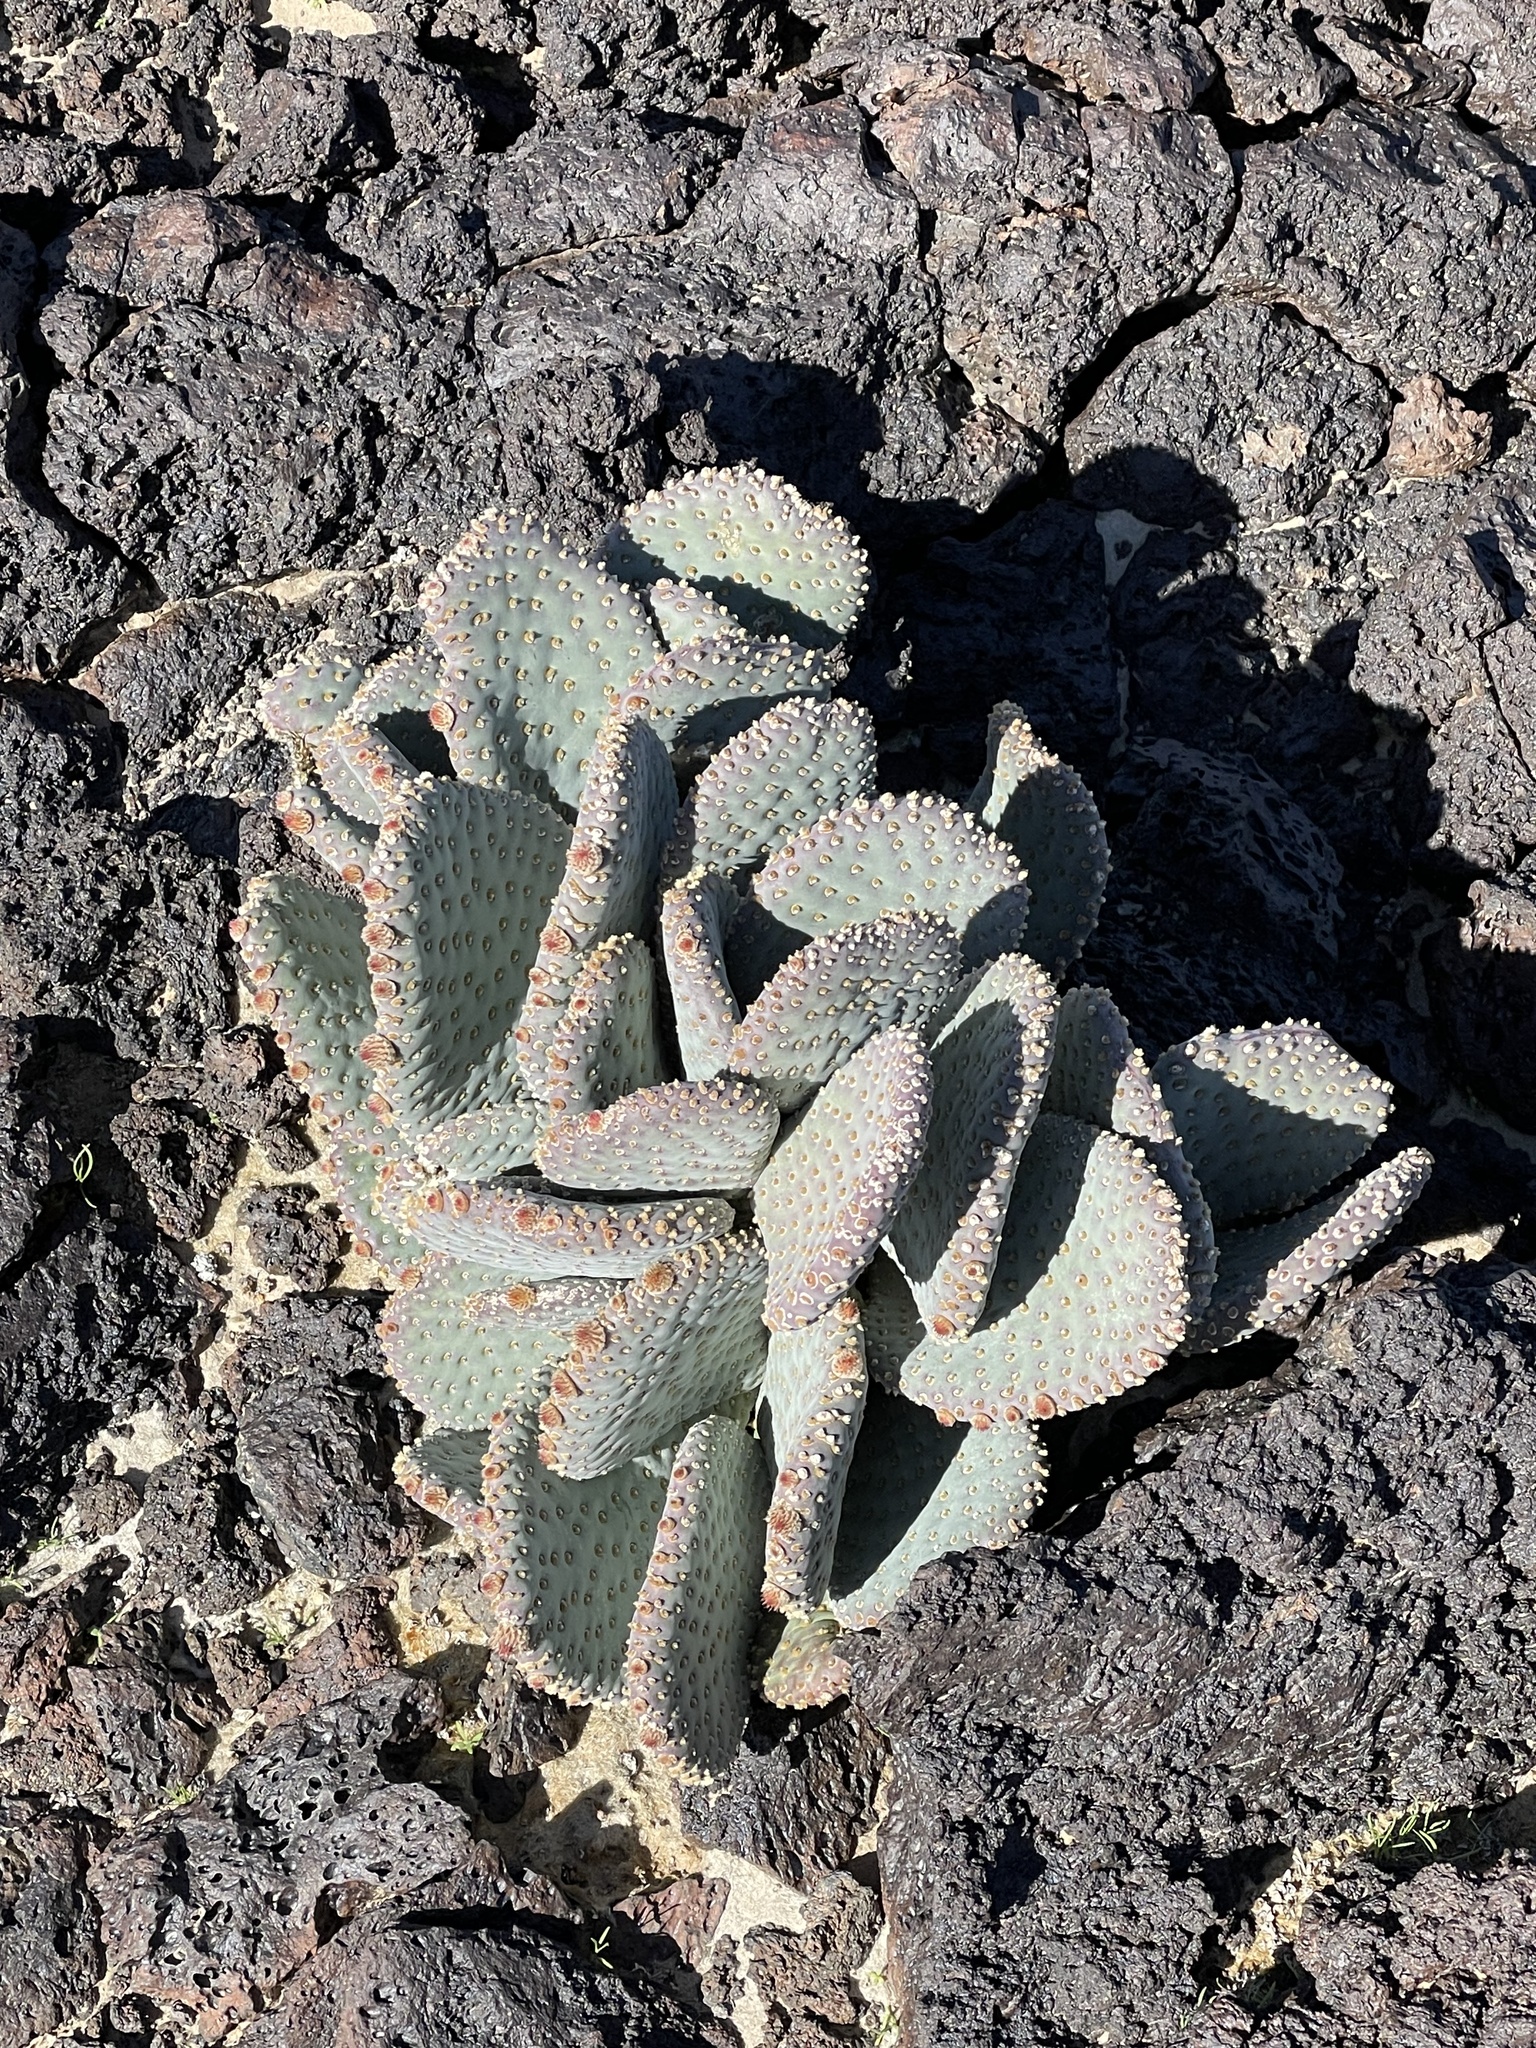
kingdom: Plantae
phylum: Tracheophyta
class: Magnoliopsida
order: Caryophyllales
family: Cactaceae
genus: Opuntia
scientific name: Opuntia basilaris
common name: Beavertail prickly-pear
